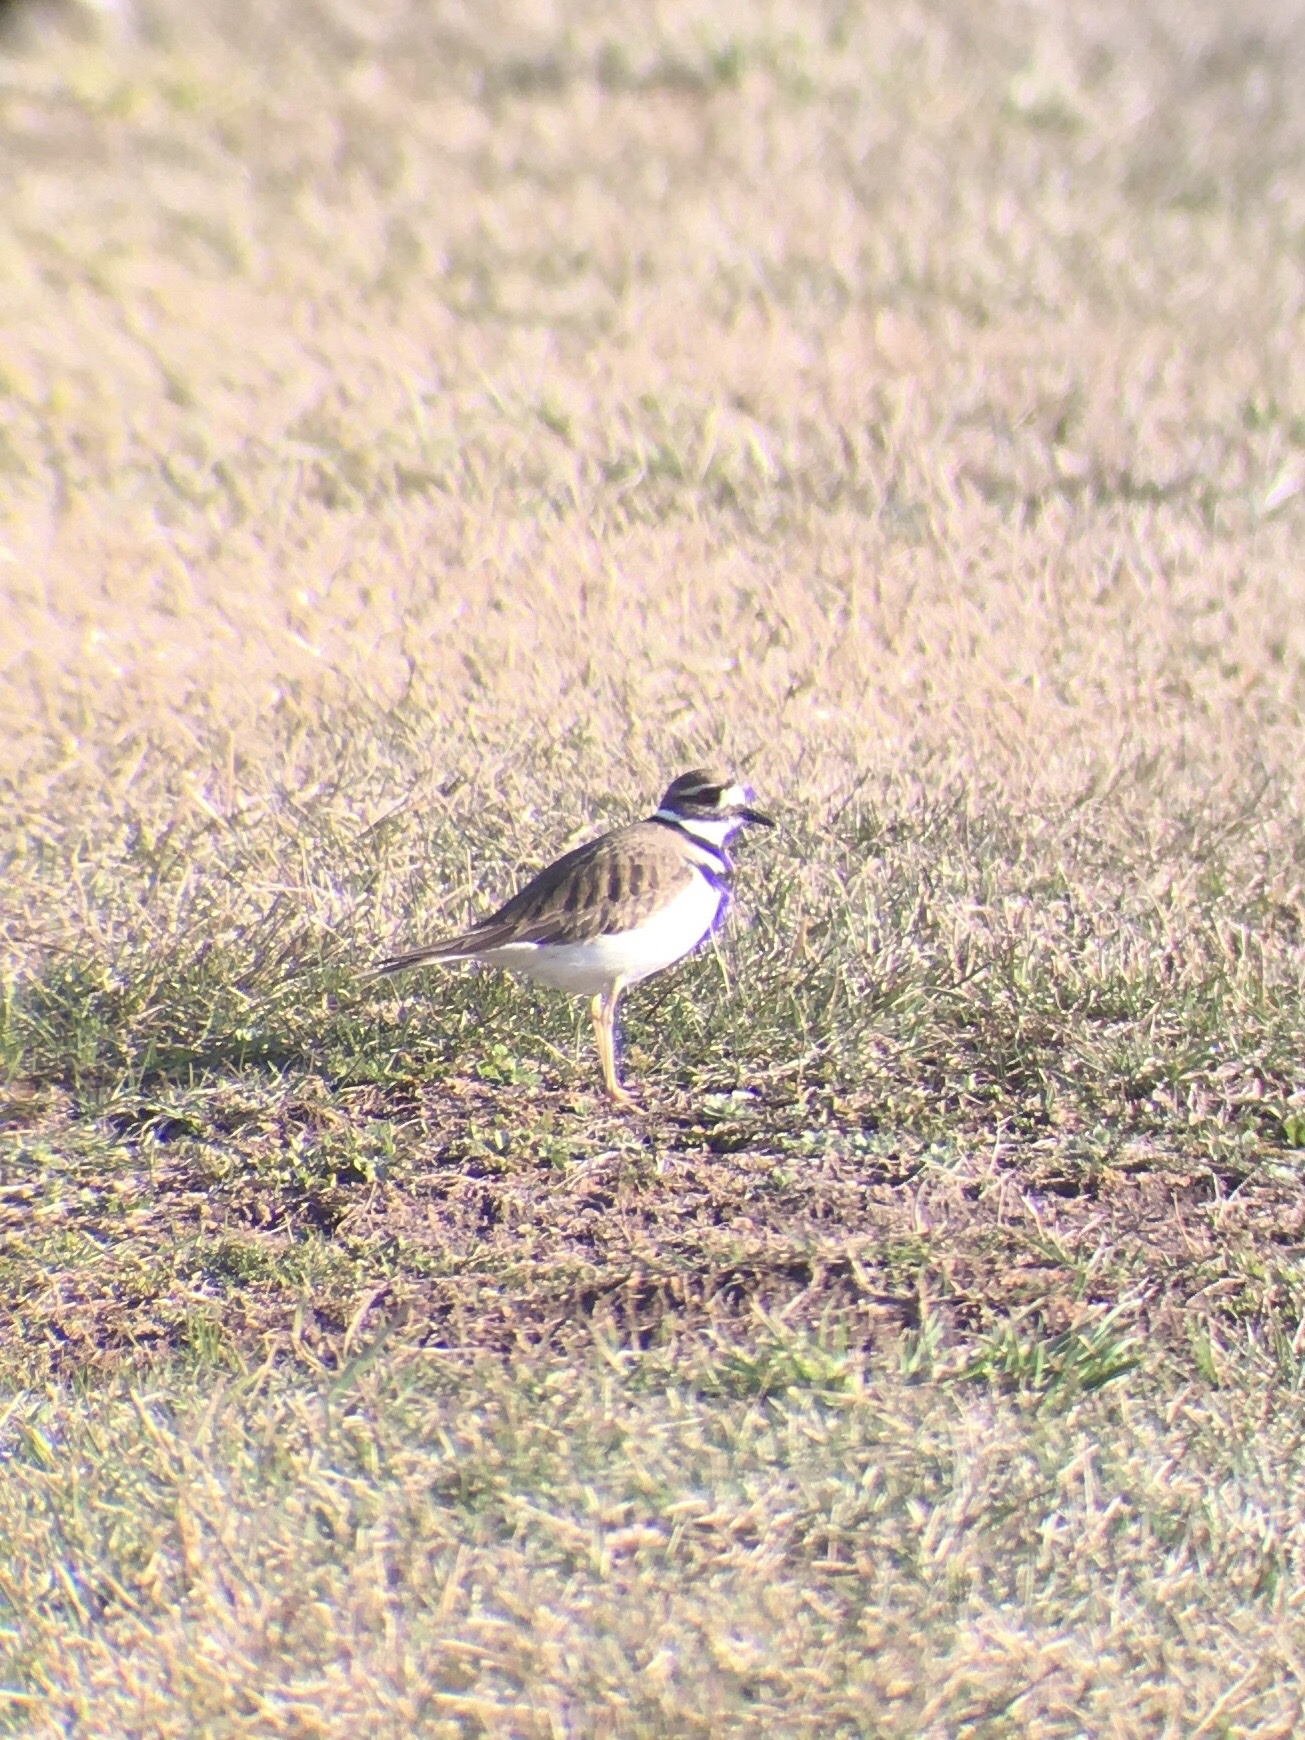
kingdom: Animalia
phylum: Chordata
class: Aves
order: Charadriiformes
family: Charadriidae
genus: Charadrius
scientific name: Charadrius vociferus
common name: Killdeer
